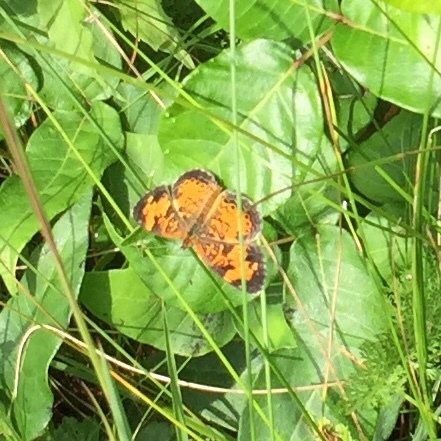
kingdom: Animalia
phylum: Arthropoda
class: Insecta
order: Lepidoptera
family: Nymphalidae
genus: Phyciodes
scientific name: Phyciodes tharos
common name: Pearl crescent
